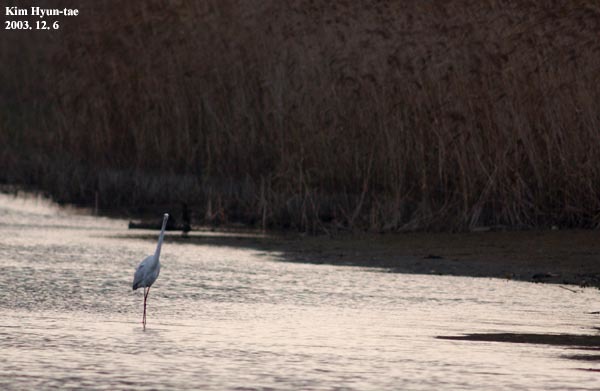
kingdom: Animalia
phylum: Chordata
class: Aves
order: Pelecaniformes
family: Ardeidae
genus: Ardea
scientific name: Ardea alba
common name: Great egret
